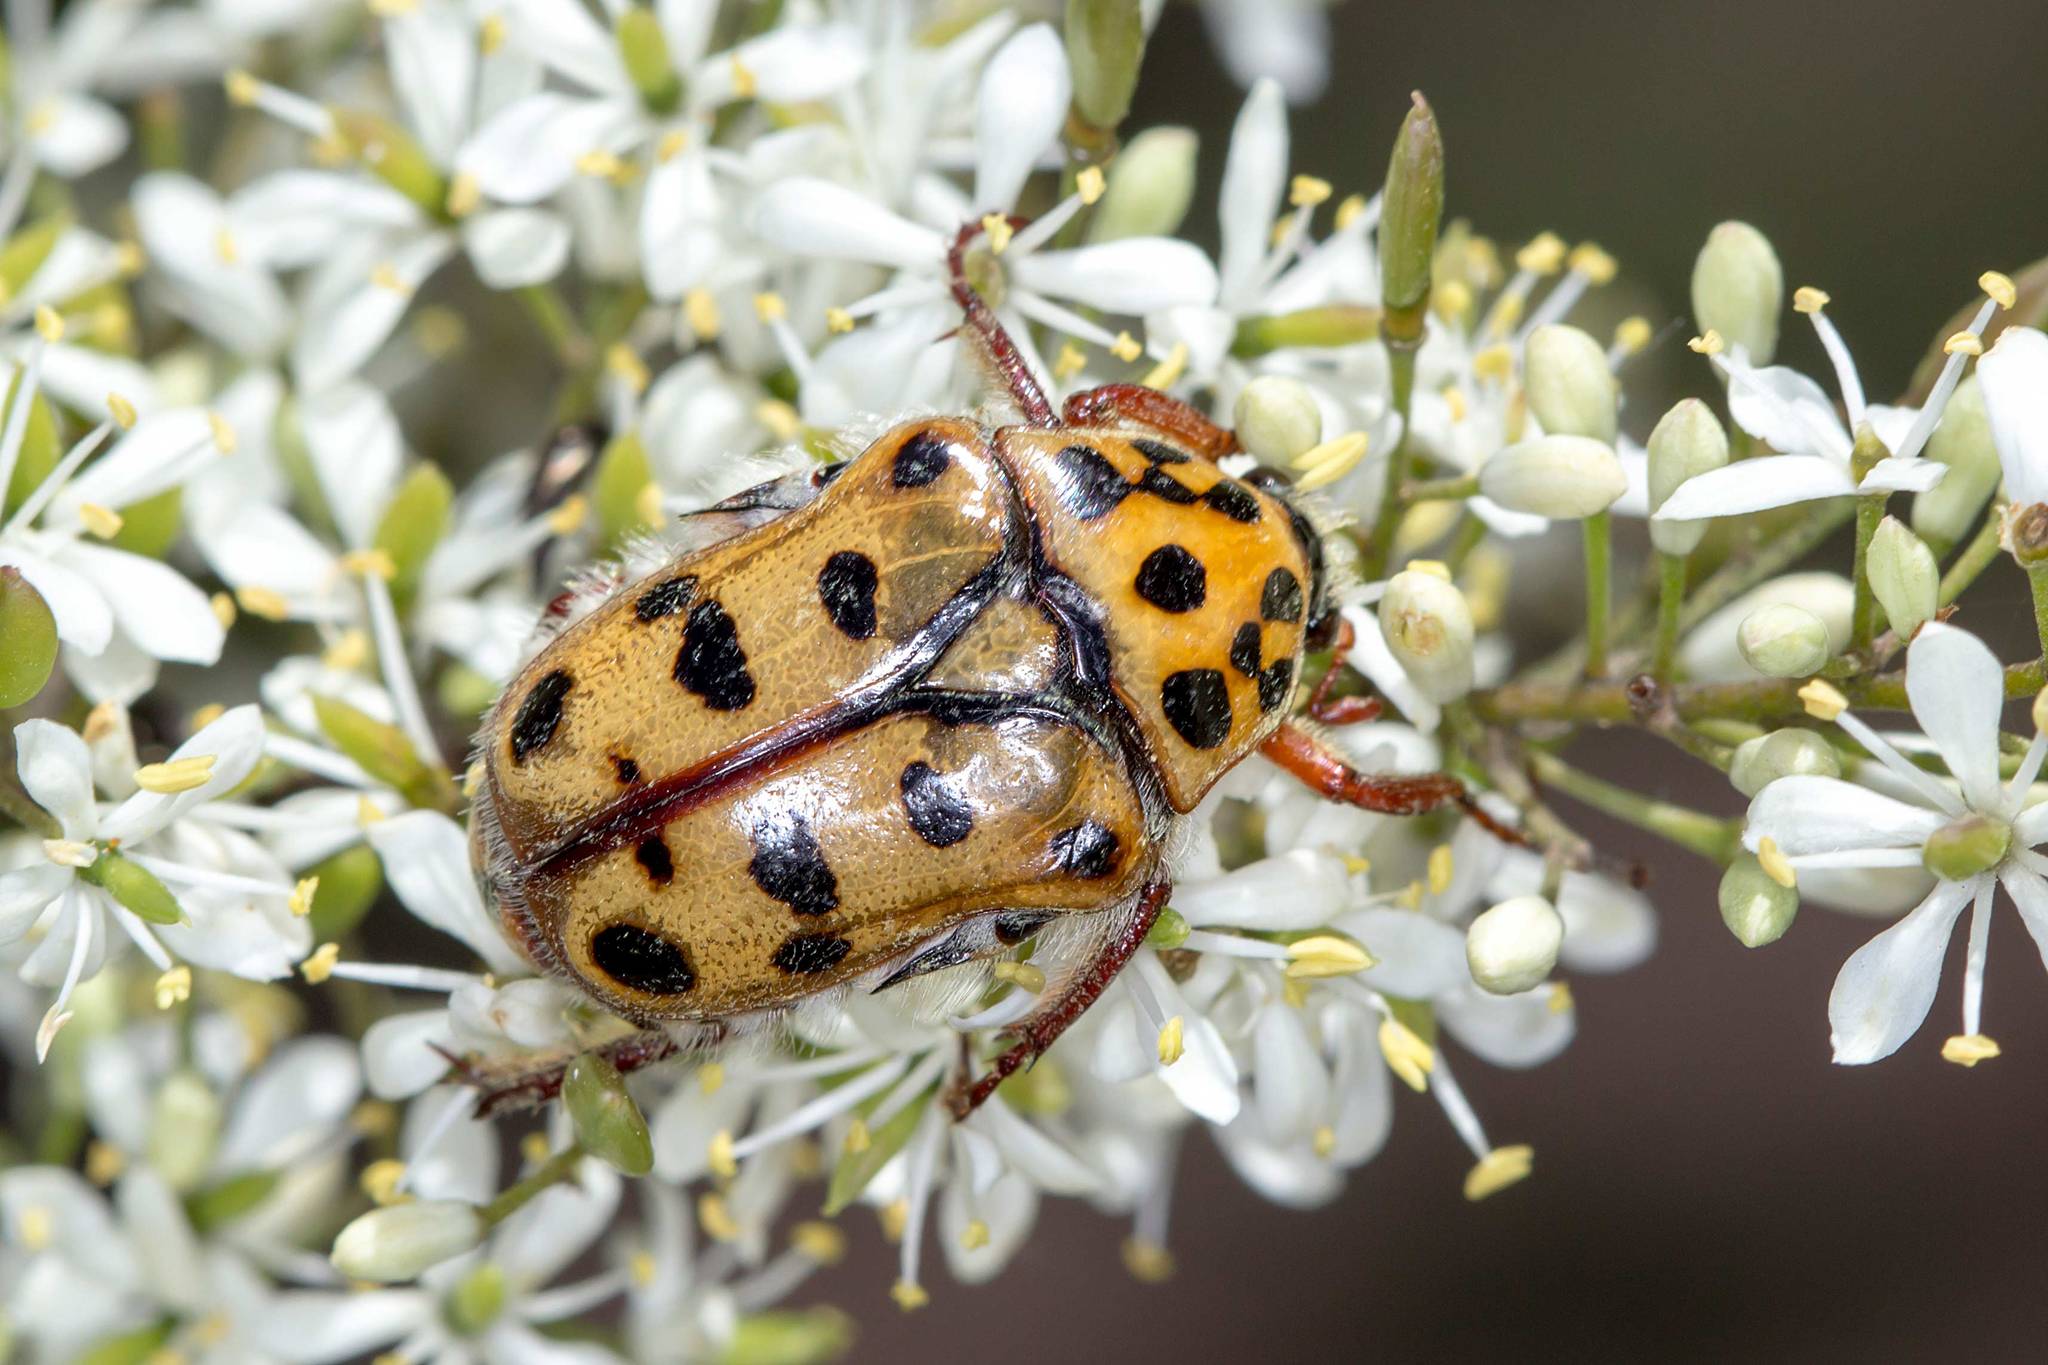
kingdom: Animalia
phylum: Arthropoda
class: Insecta
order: Coleoptera
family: Scarabaeidae
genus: Neorrhina
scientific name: Neorrhina punctatum
